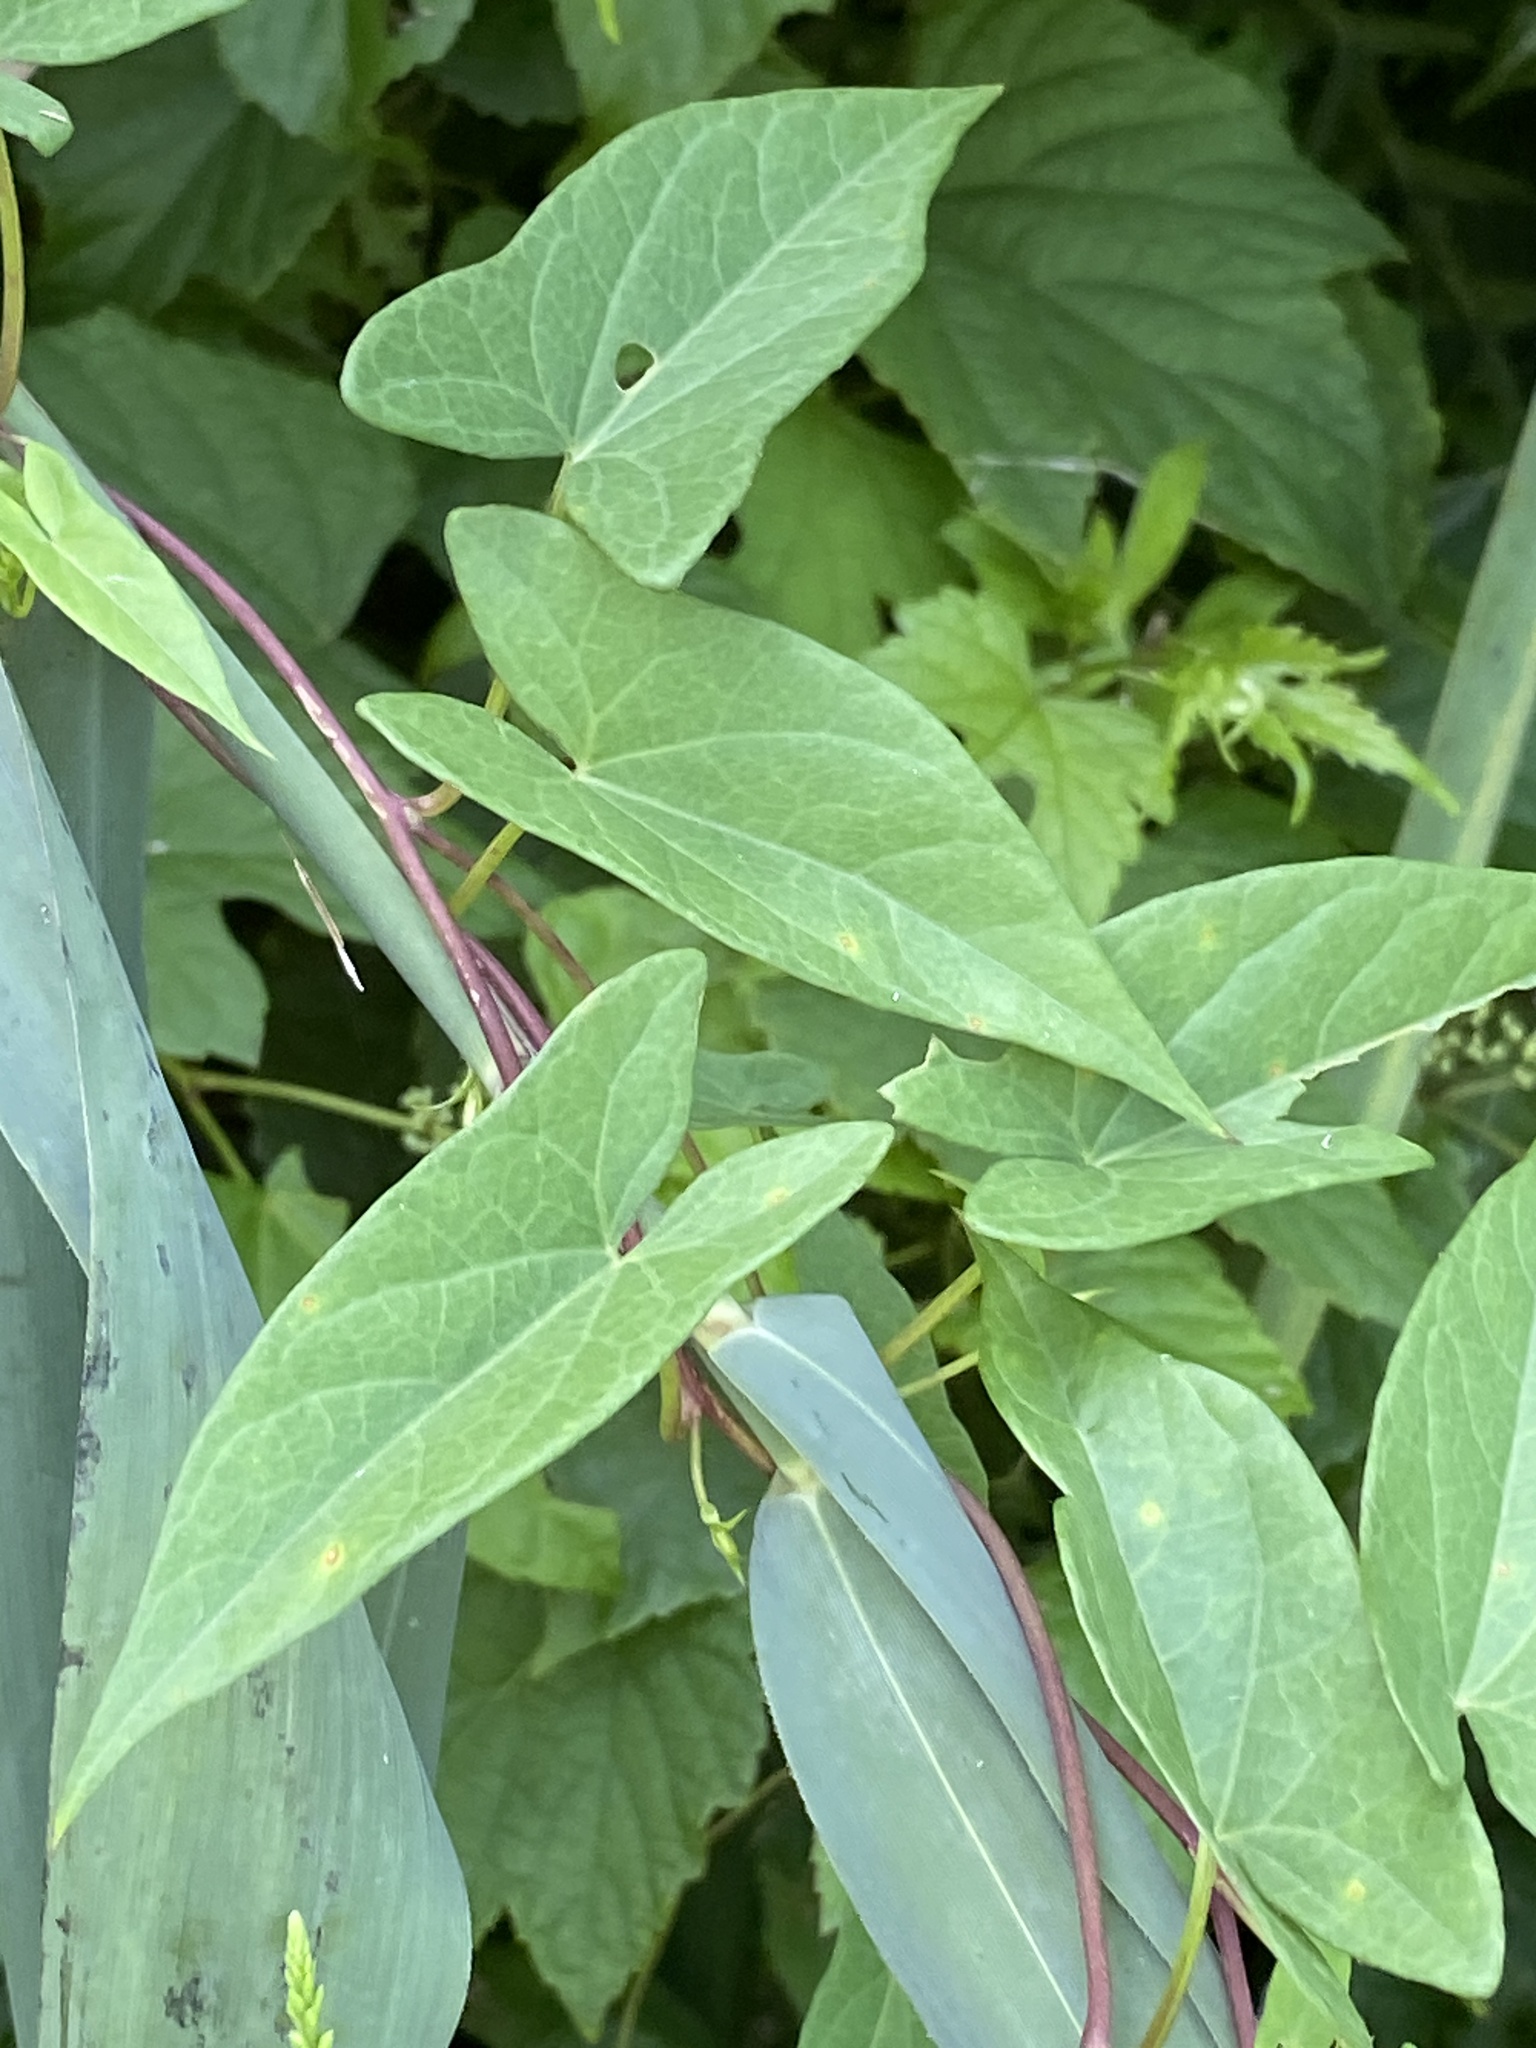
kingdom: Plantae
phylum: Tracheophyta
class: Magnoliopsida
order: Solanales
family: Convolvulaceae
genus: Calystegia
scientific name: Calystegia sepium
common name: Hedge bindweed
